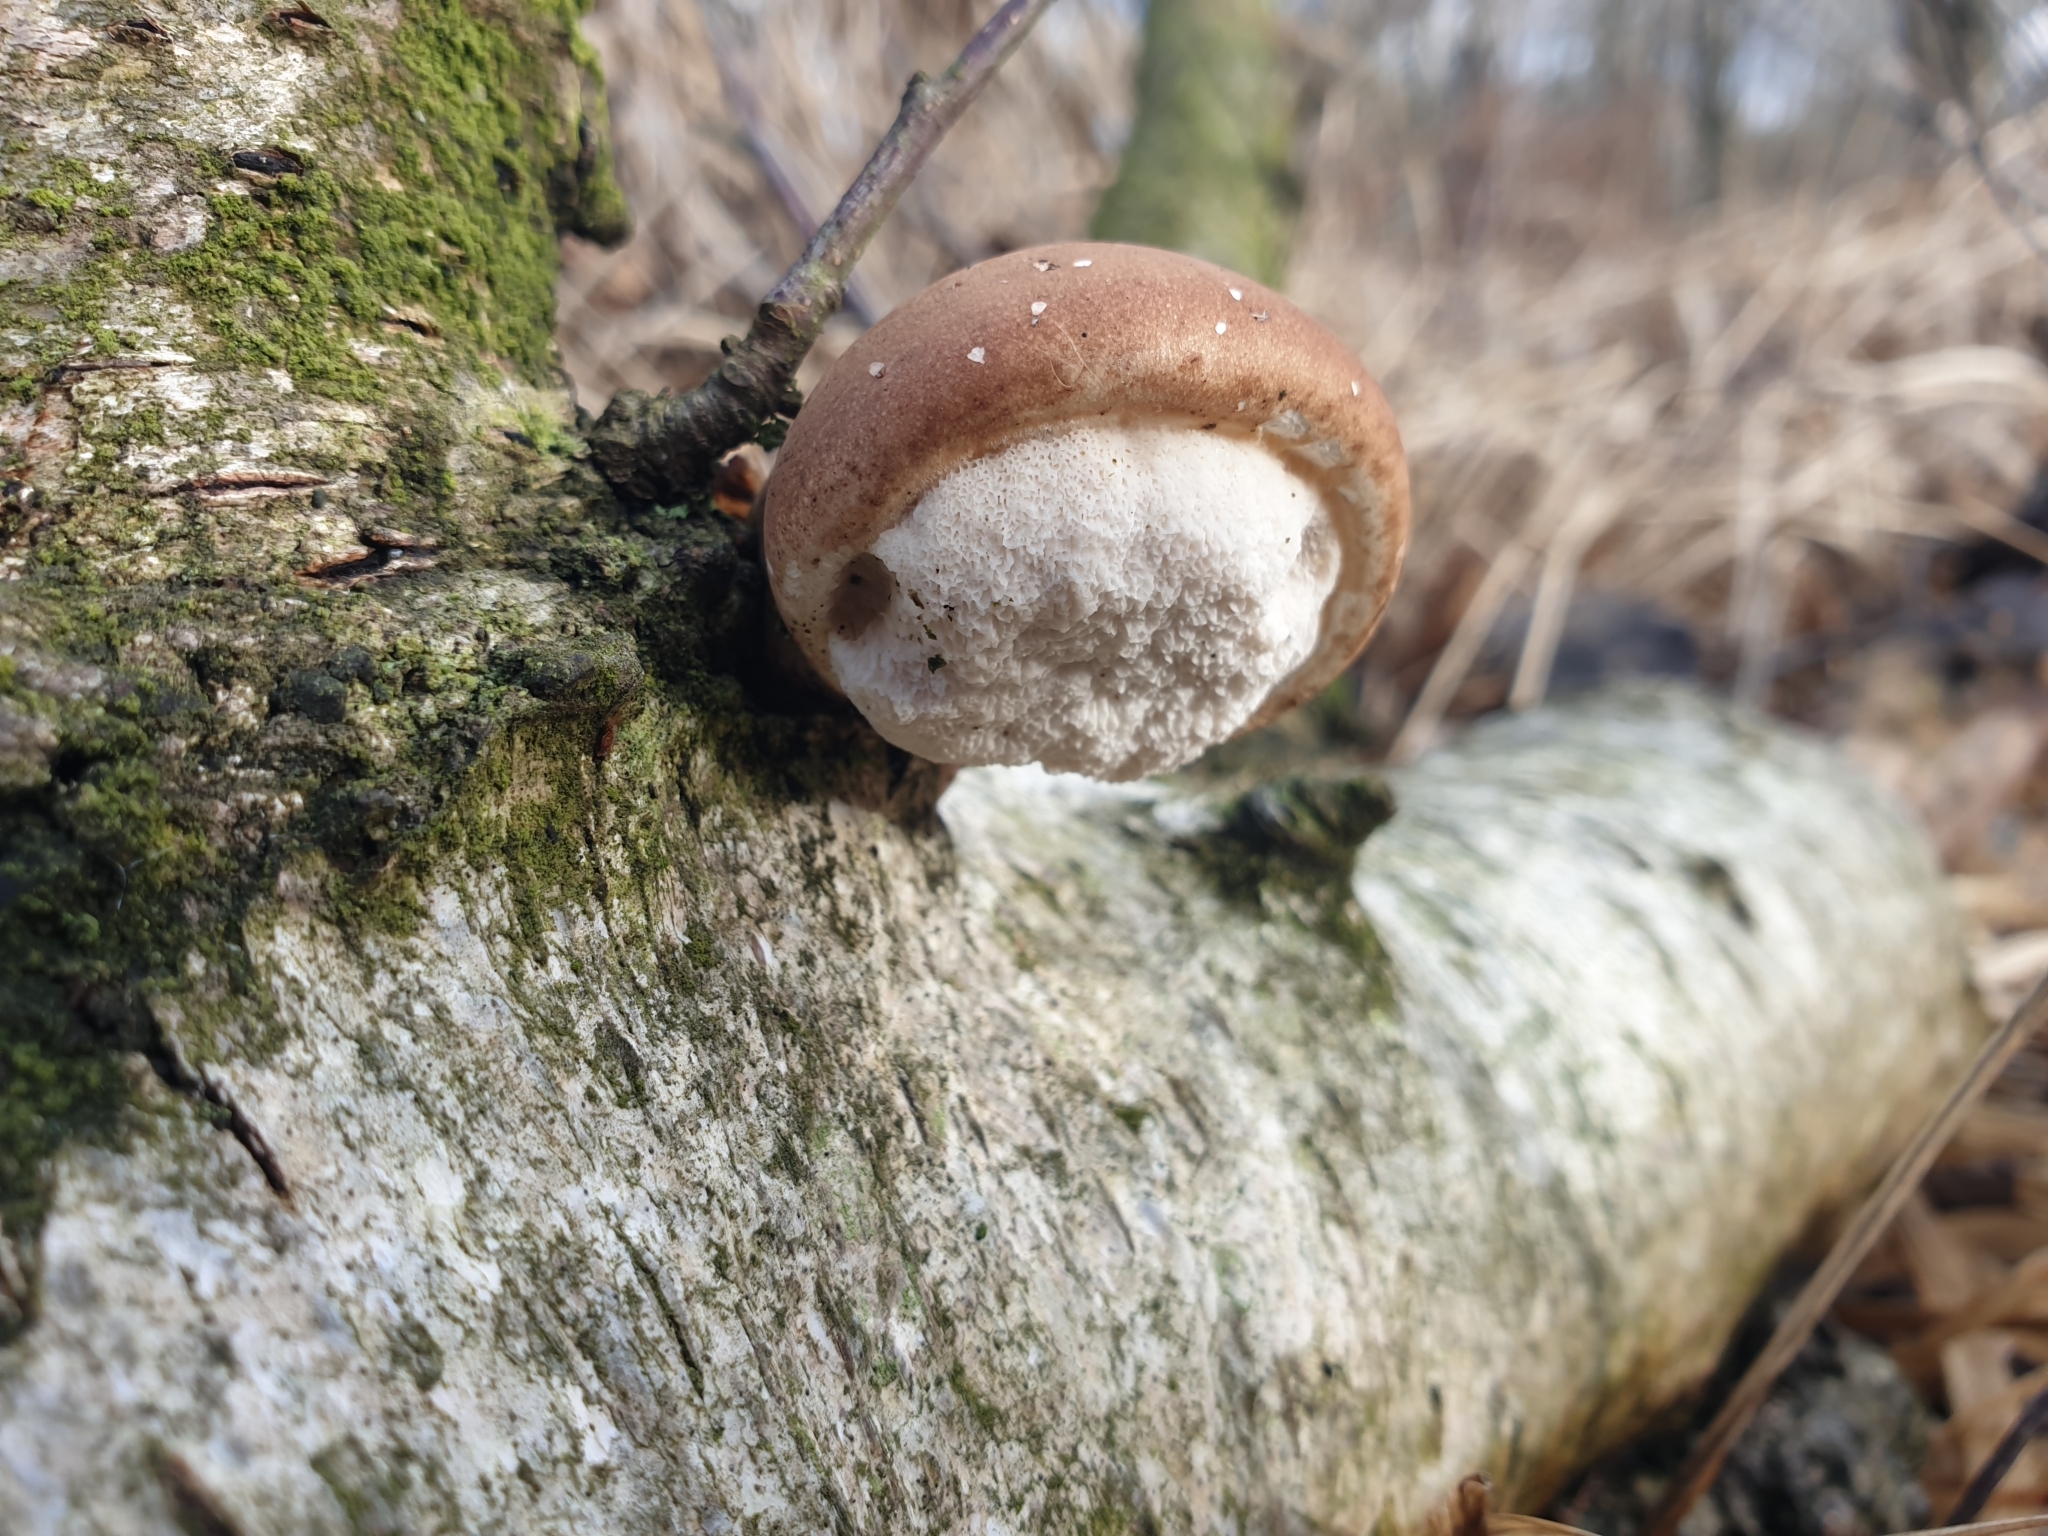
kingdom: Fungi
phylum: Basidiomycota
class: Agaricomycetes
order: Polyporales
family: Fomitopsidaceae
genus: Fomitopsis
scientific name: Fomitopsis betulina
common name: Birch polypore
